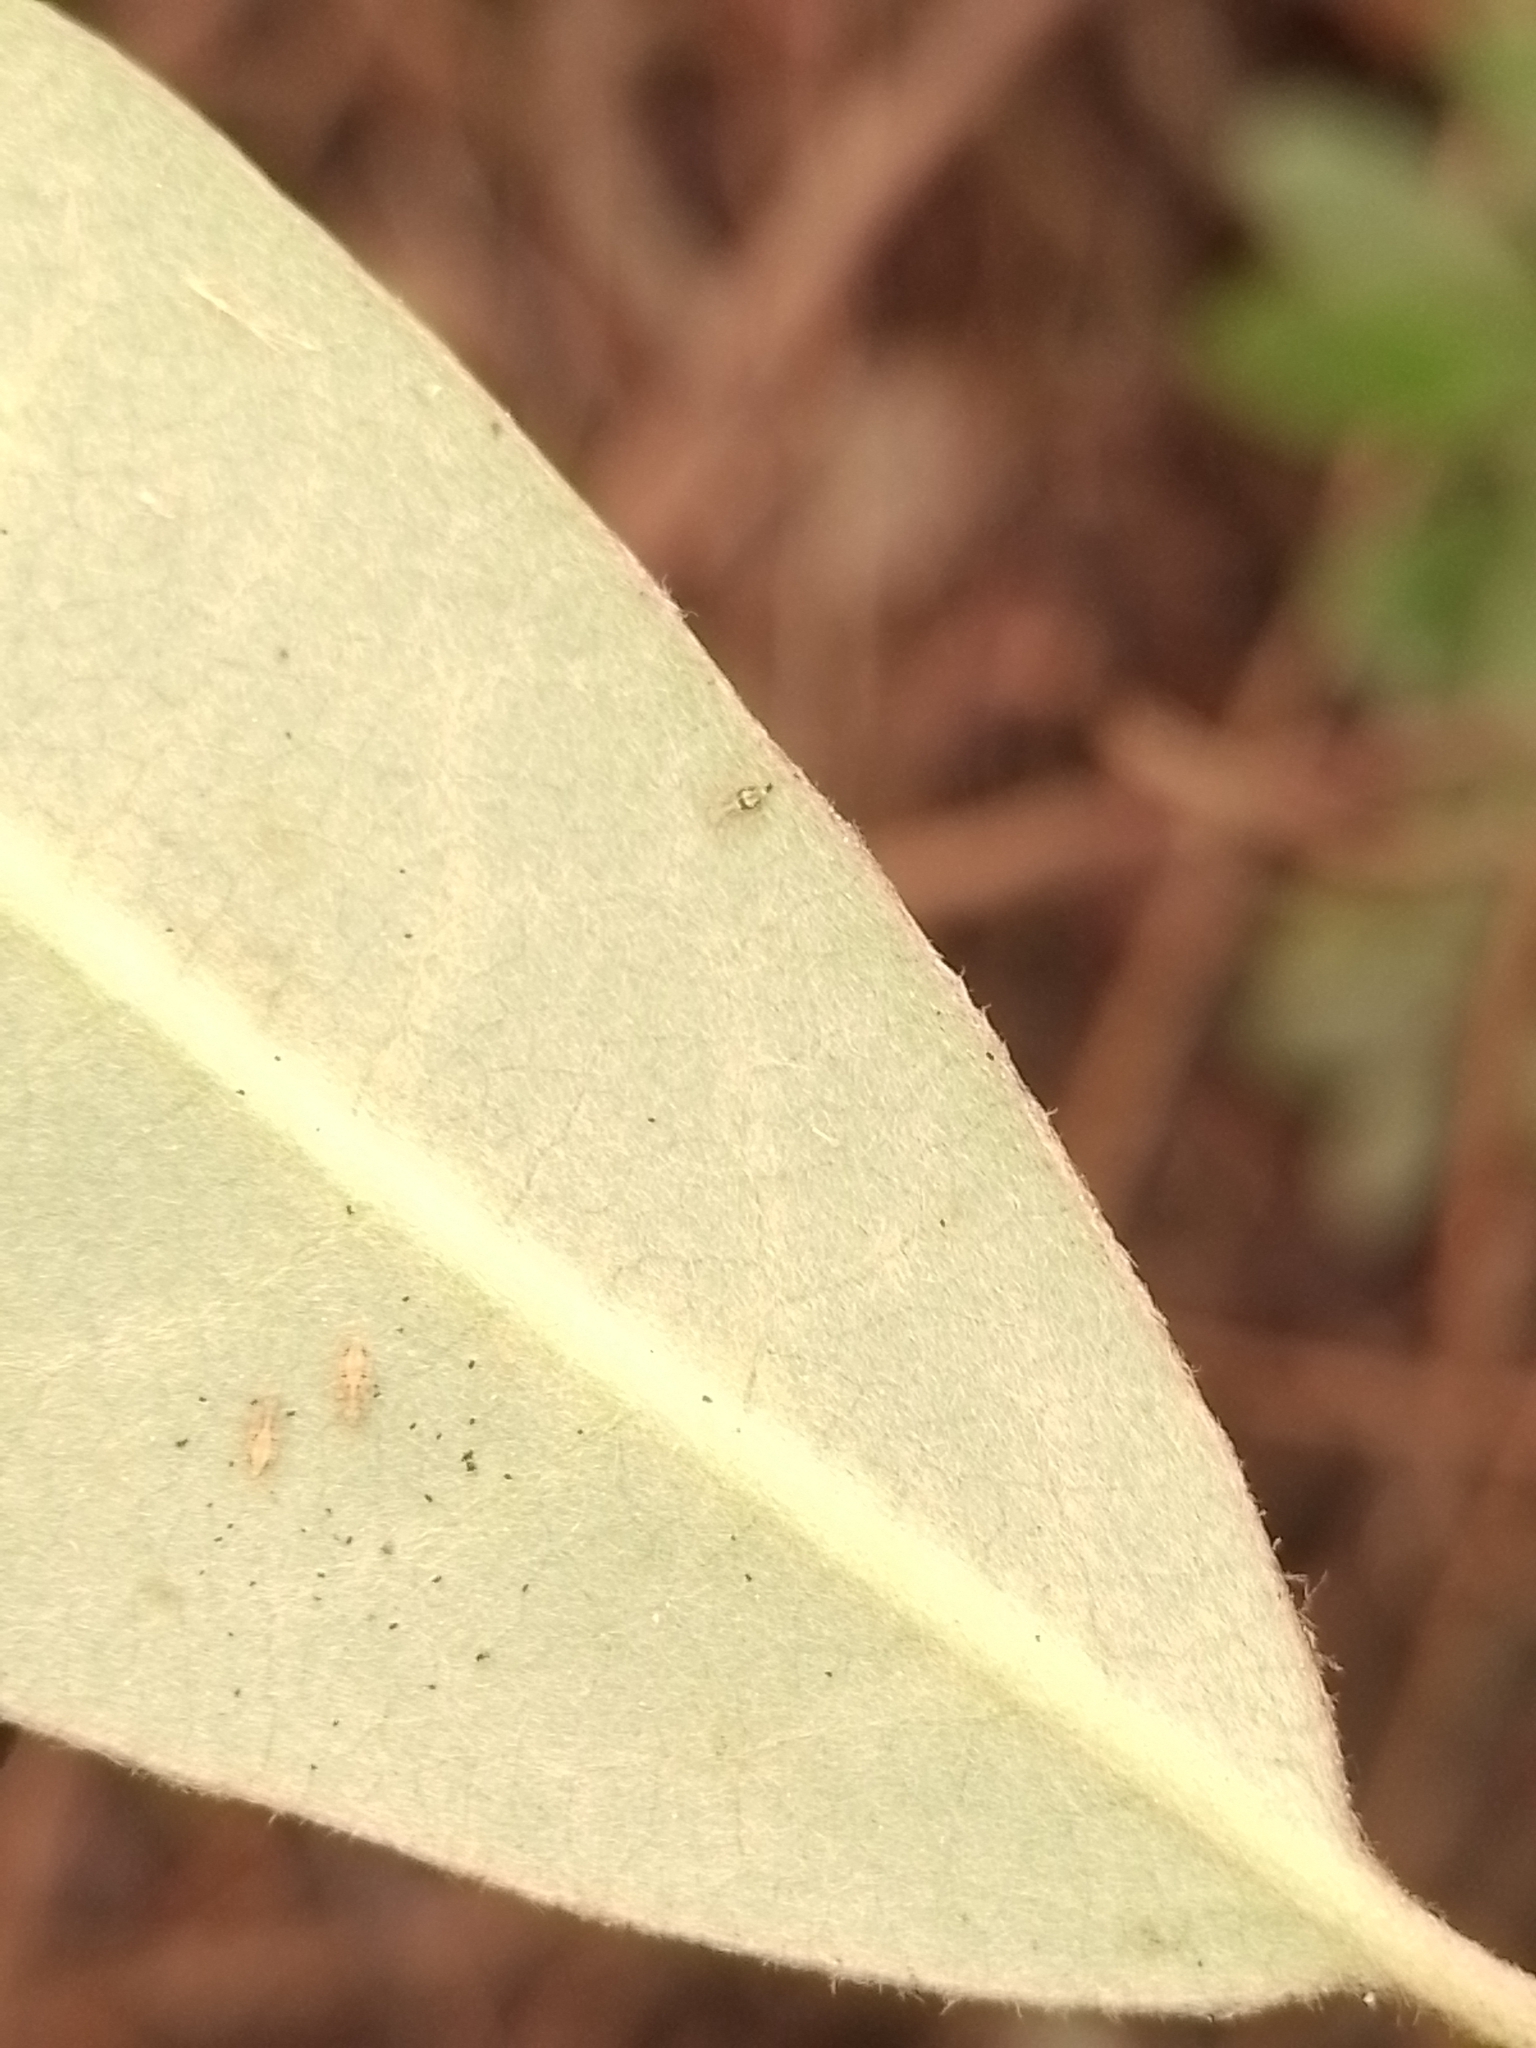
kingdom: Plantae
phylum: Tracheophyta
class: Magnoliopsida
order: Apiales
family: Pittosporaceae
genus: Pittosporum
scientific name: Pittosporum ralphii
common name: Ralph's desertwillow
